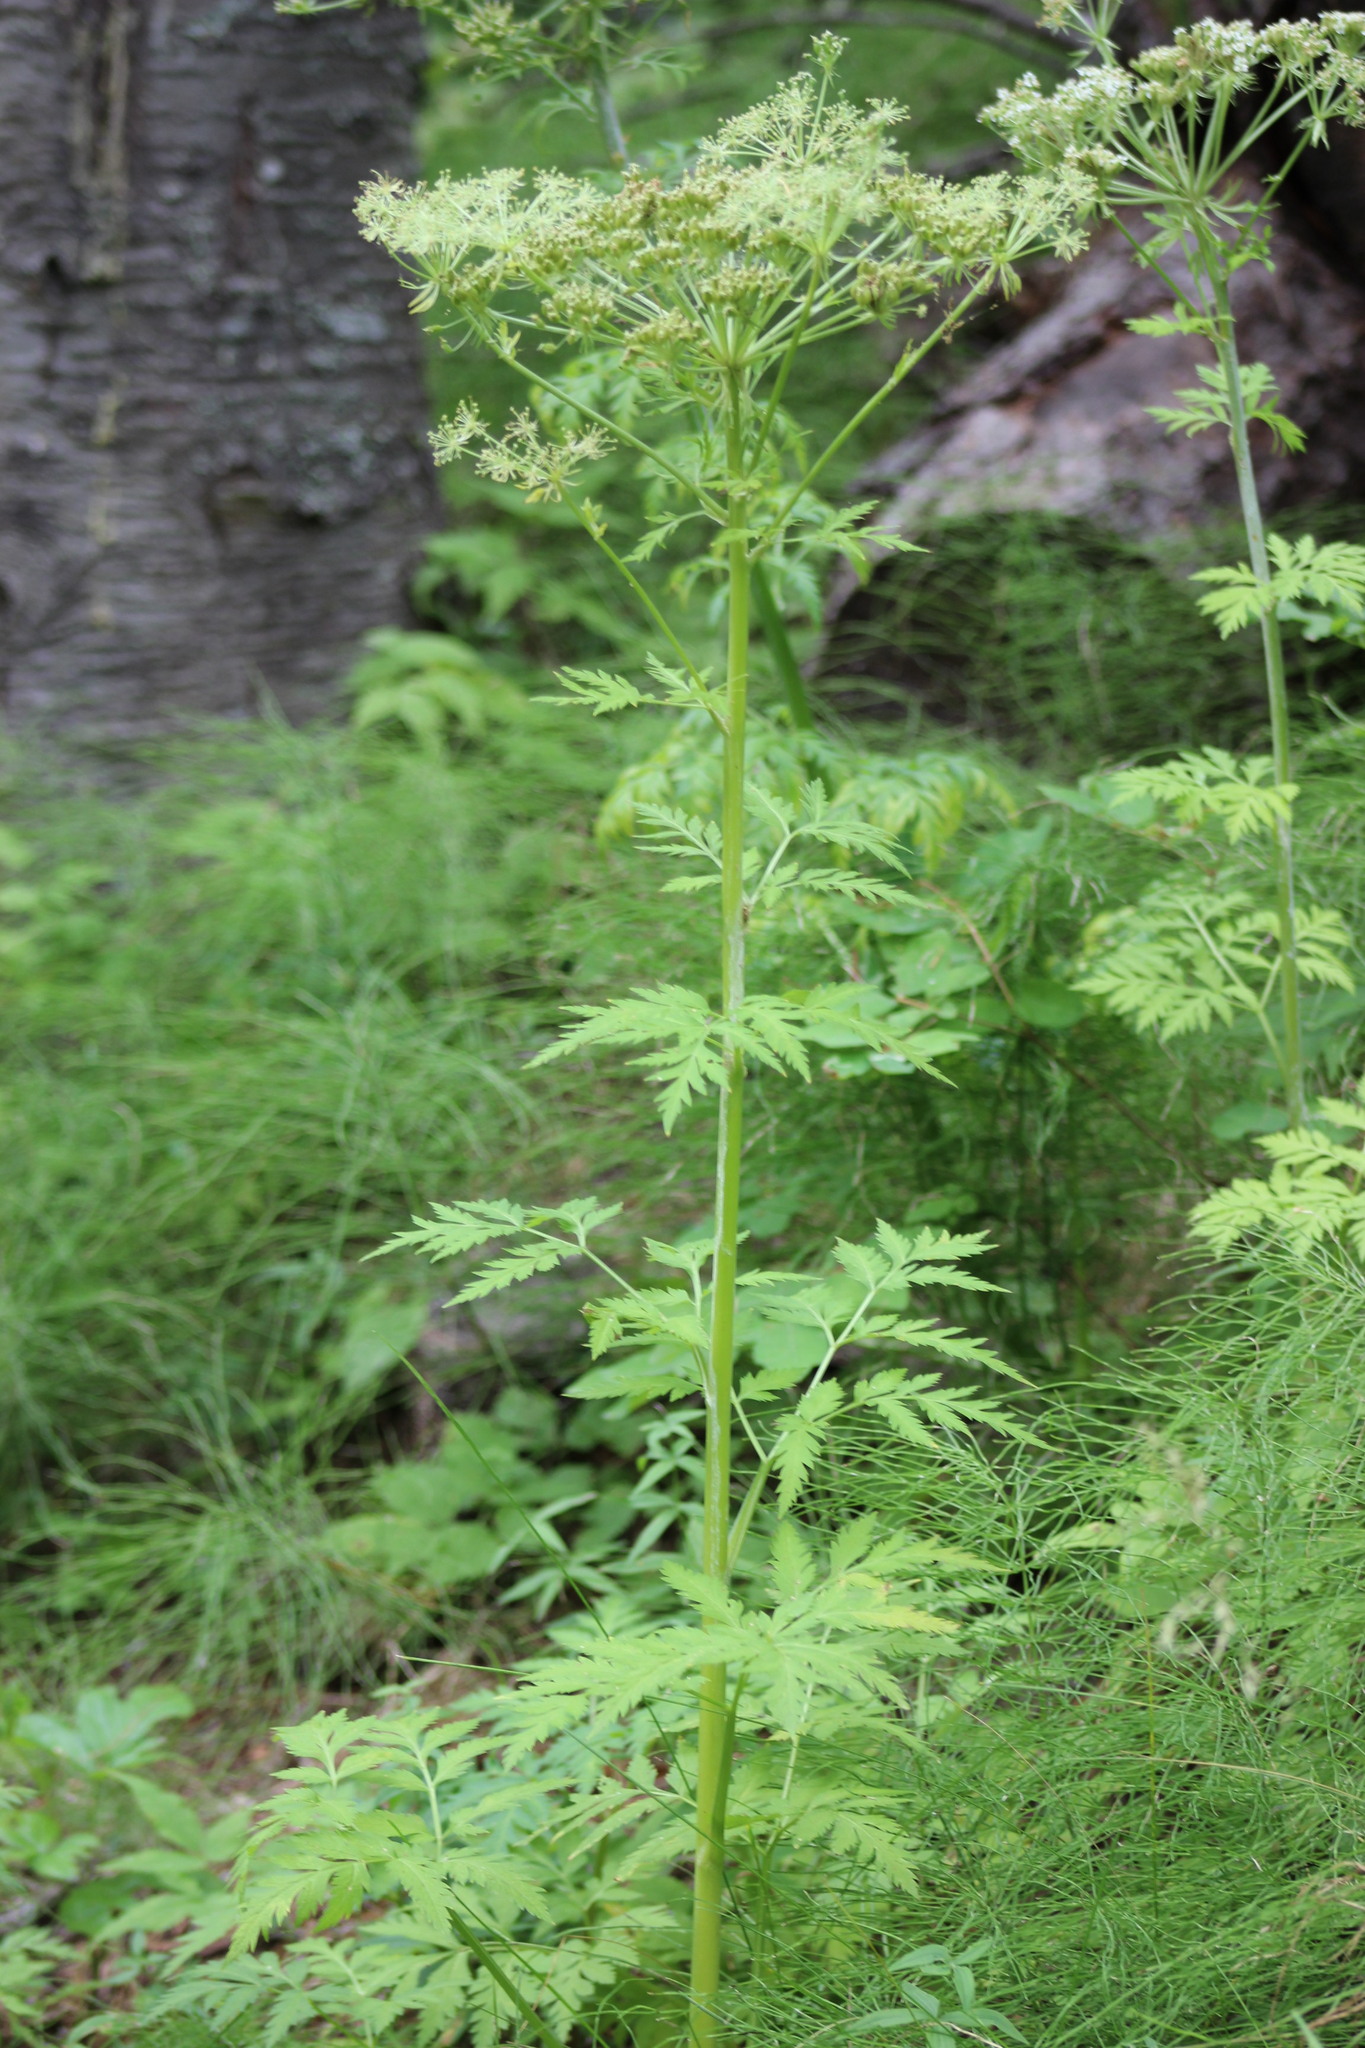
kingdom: Plantae
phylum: Tracheophyta
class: Magnoliopsida
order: Apiales
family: Apiaceae
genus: Pleurospermum
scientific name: Pleurospermum uralense
